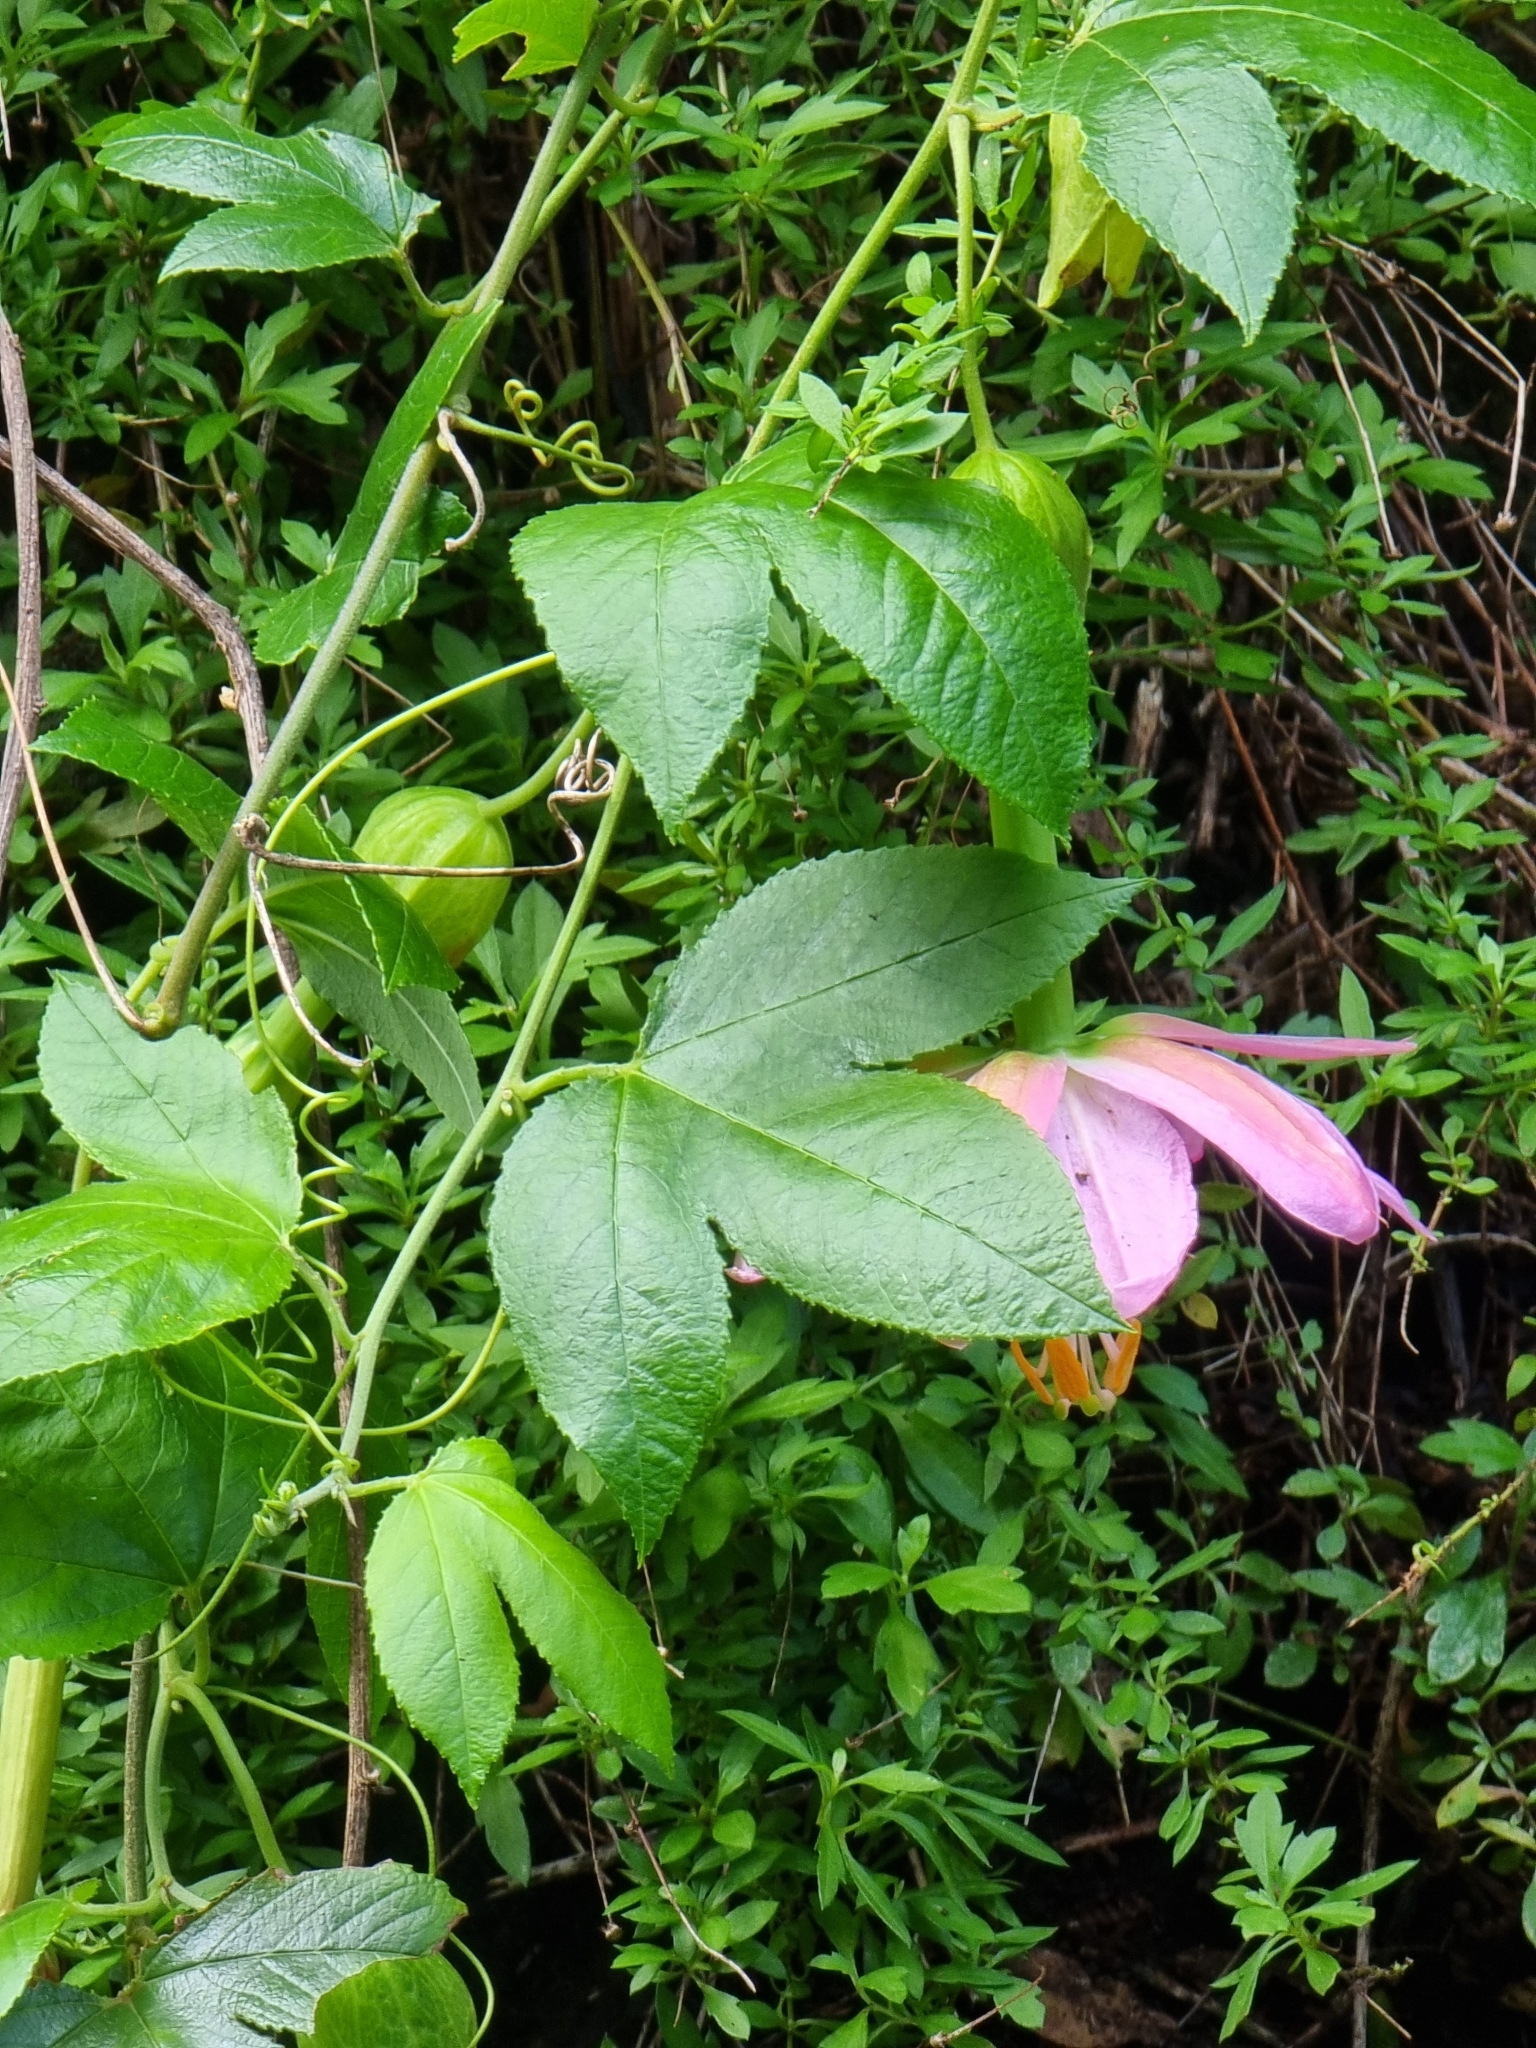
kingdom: Plantae
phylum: Tracheophyta
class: Magnoliopsida
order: Malpighiales
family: Passifloraceae
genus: Passiflora
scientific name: Passiflora tarminiana
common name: Banana poka
